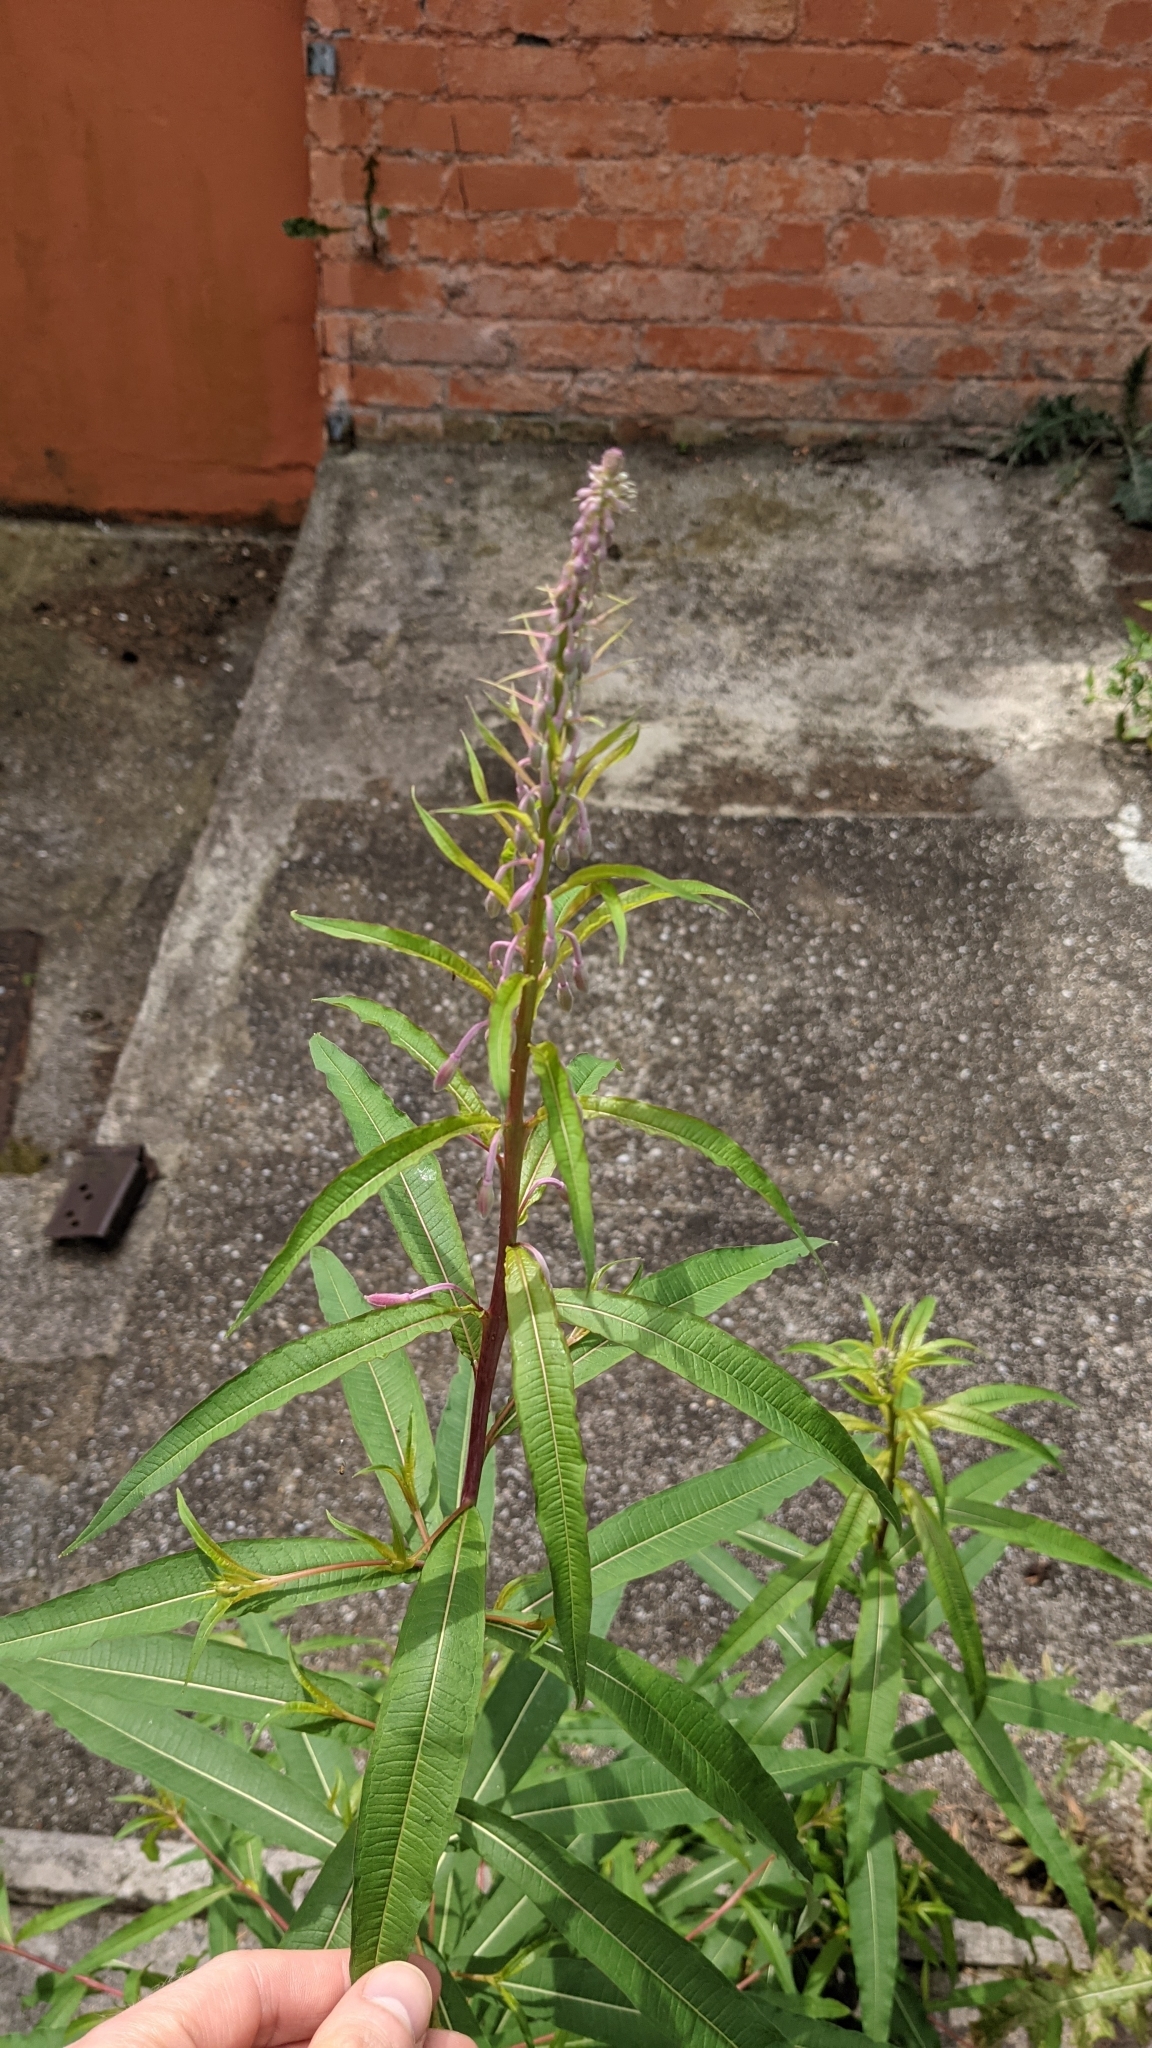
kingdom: Plantae
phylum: Tracheophyta
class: Magnoliopsida
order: Myrtales
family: Onagraceae
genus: Chamaenerion
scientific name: Chamaenerion angustifolium
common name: Fireweed
